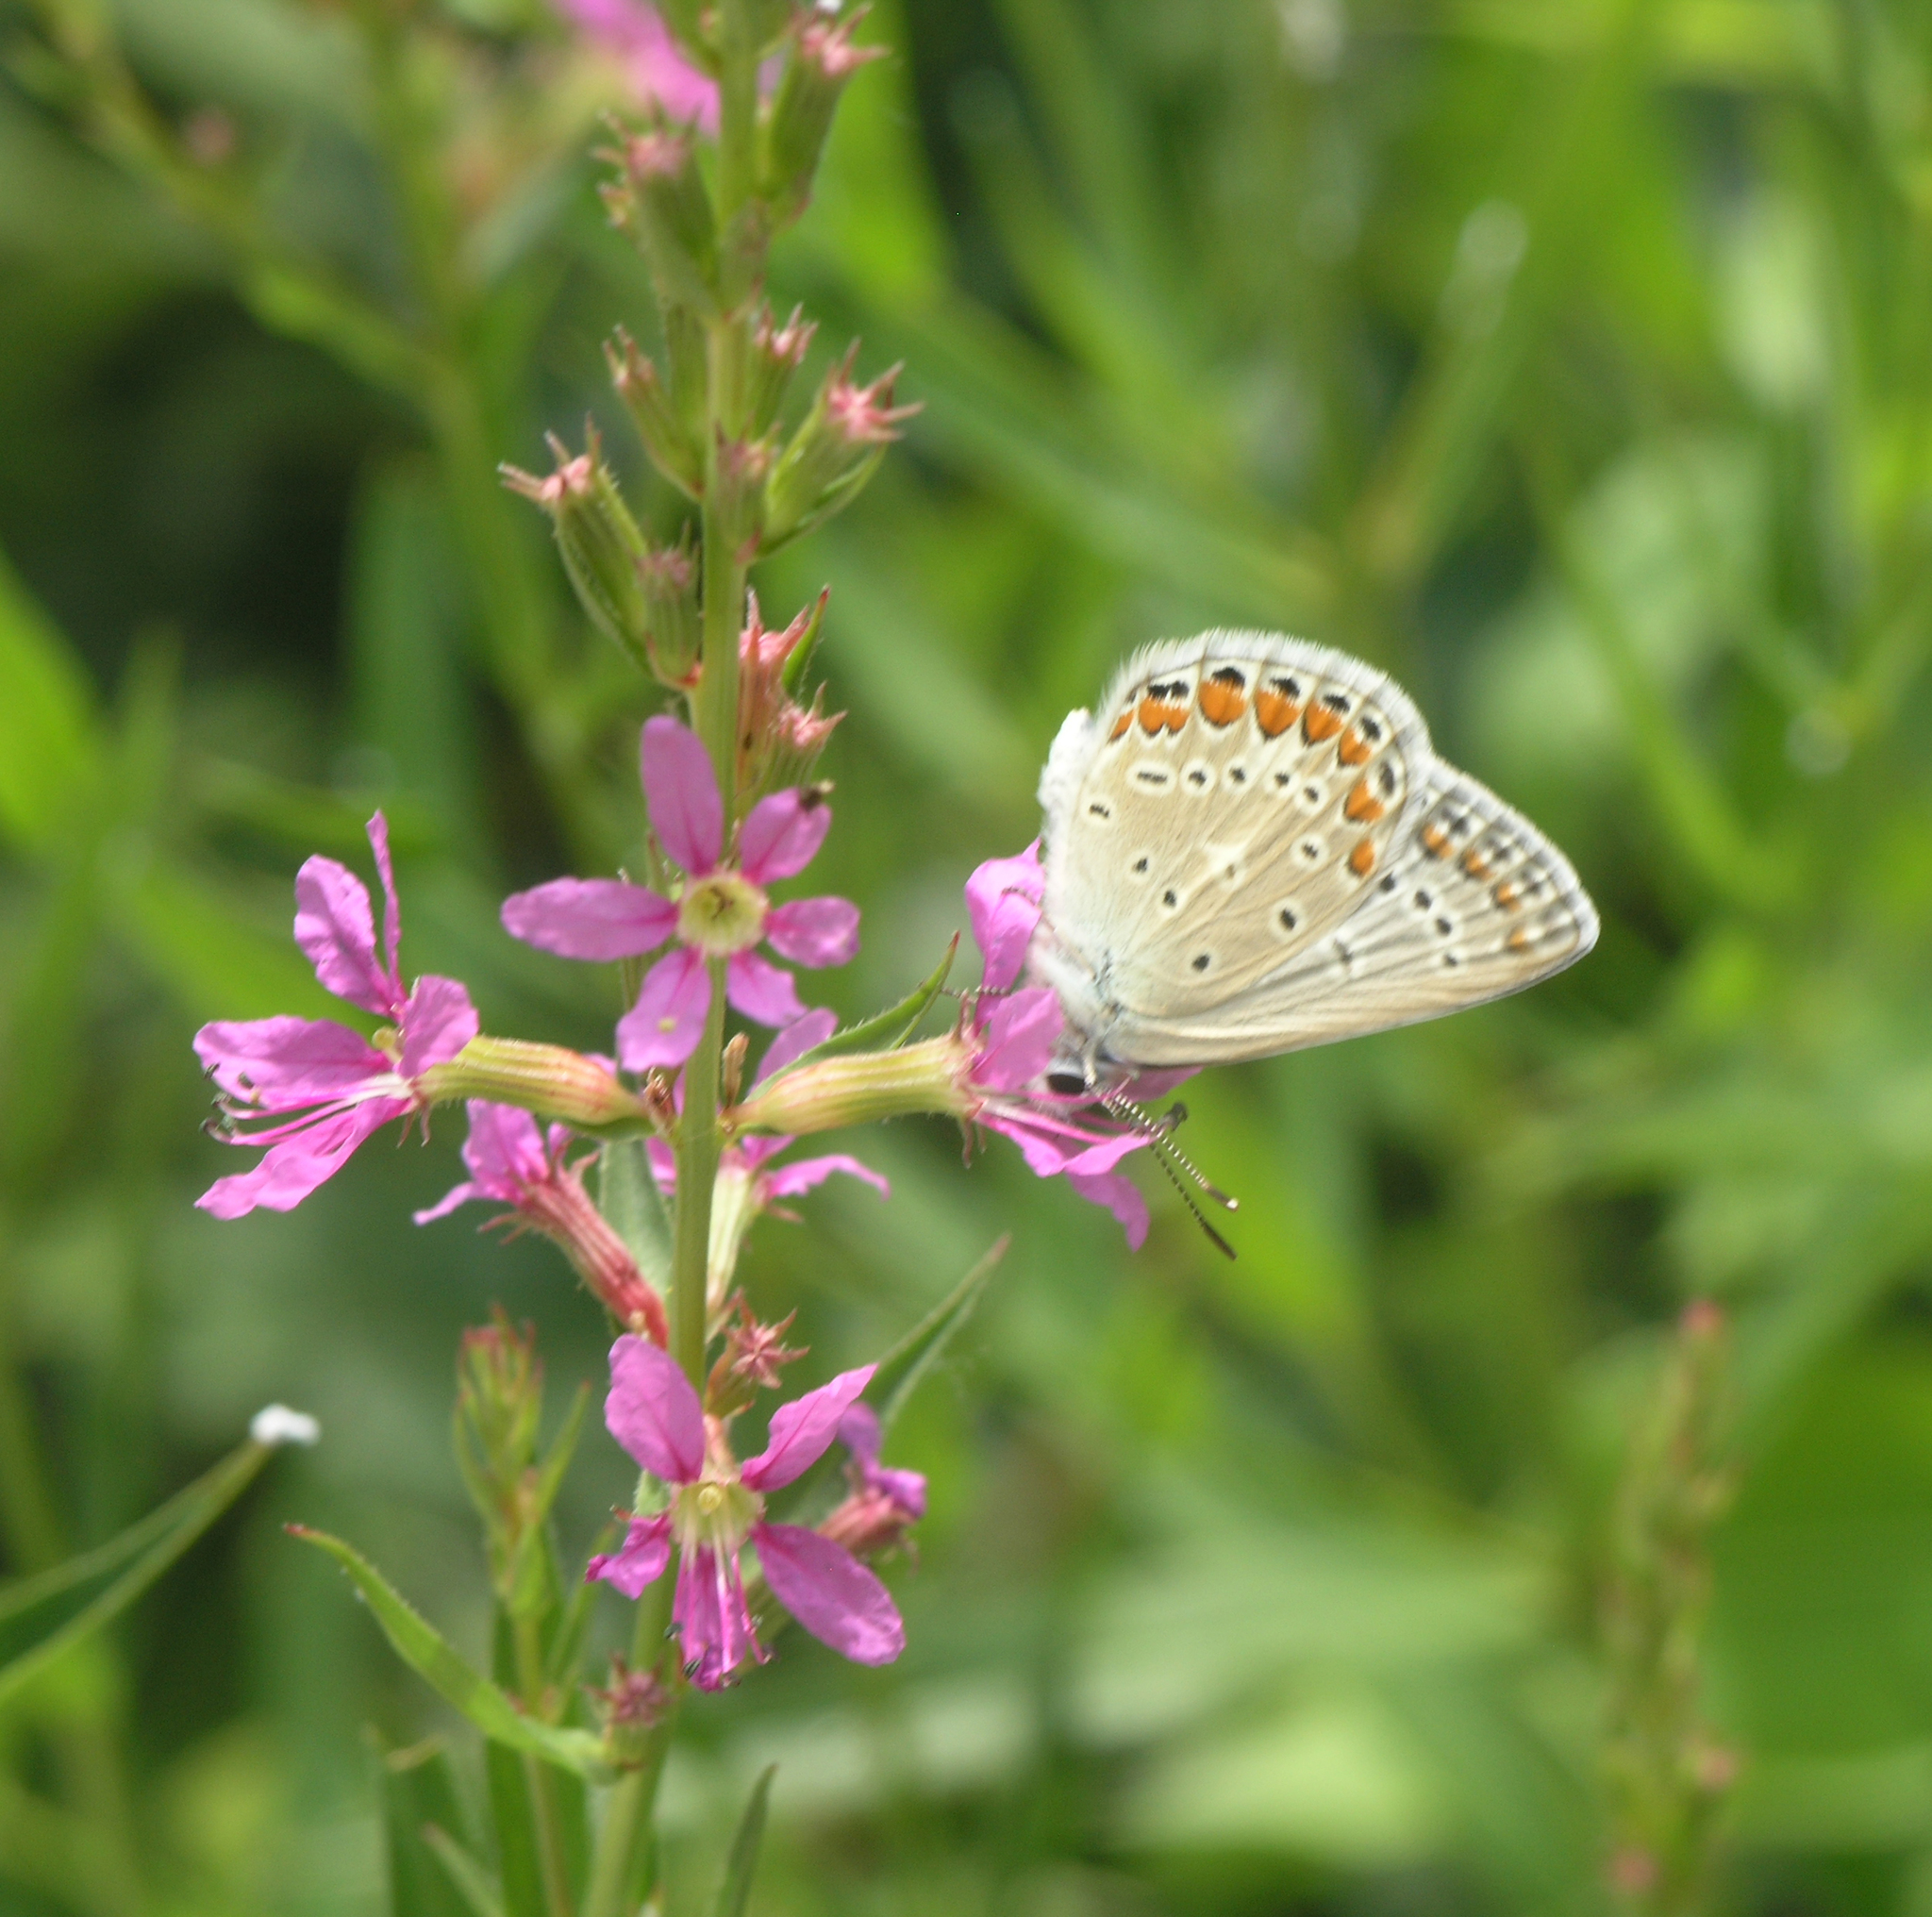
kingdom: Plantae
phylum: Tracheophyta
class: Magnoliopsida
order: Myrtales
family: Lythraceae
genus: Lythrum
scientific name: Lythrum virgatum
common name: European wand loosestrife
